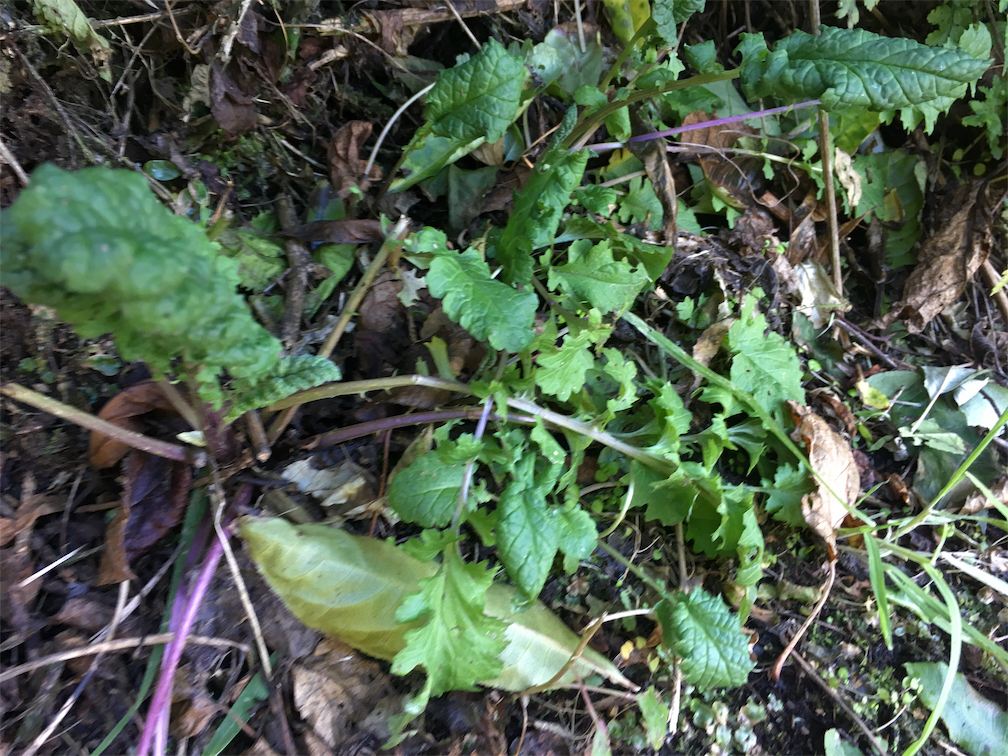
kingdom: Plantae
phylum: Tracheophyta
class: Magnoliopsida
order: Asterales
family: Asteraceae
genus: Jacobaea
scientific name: Jacobaea vulgaris
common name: Stinking willie
